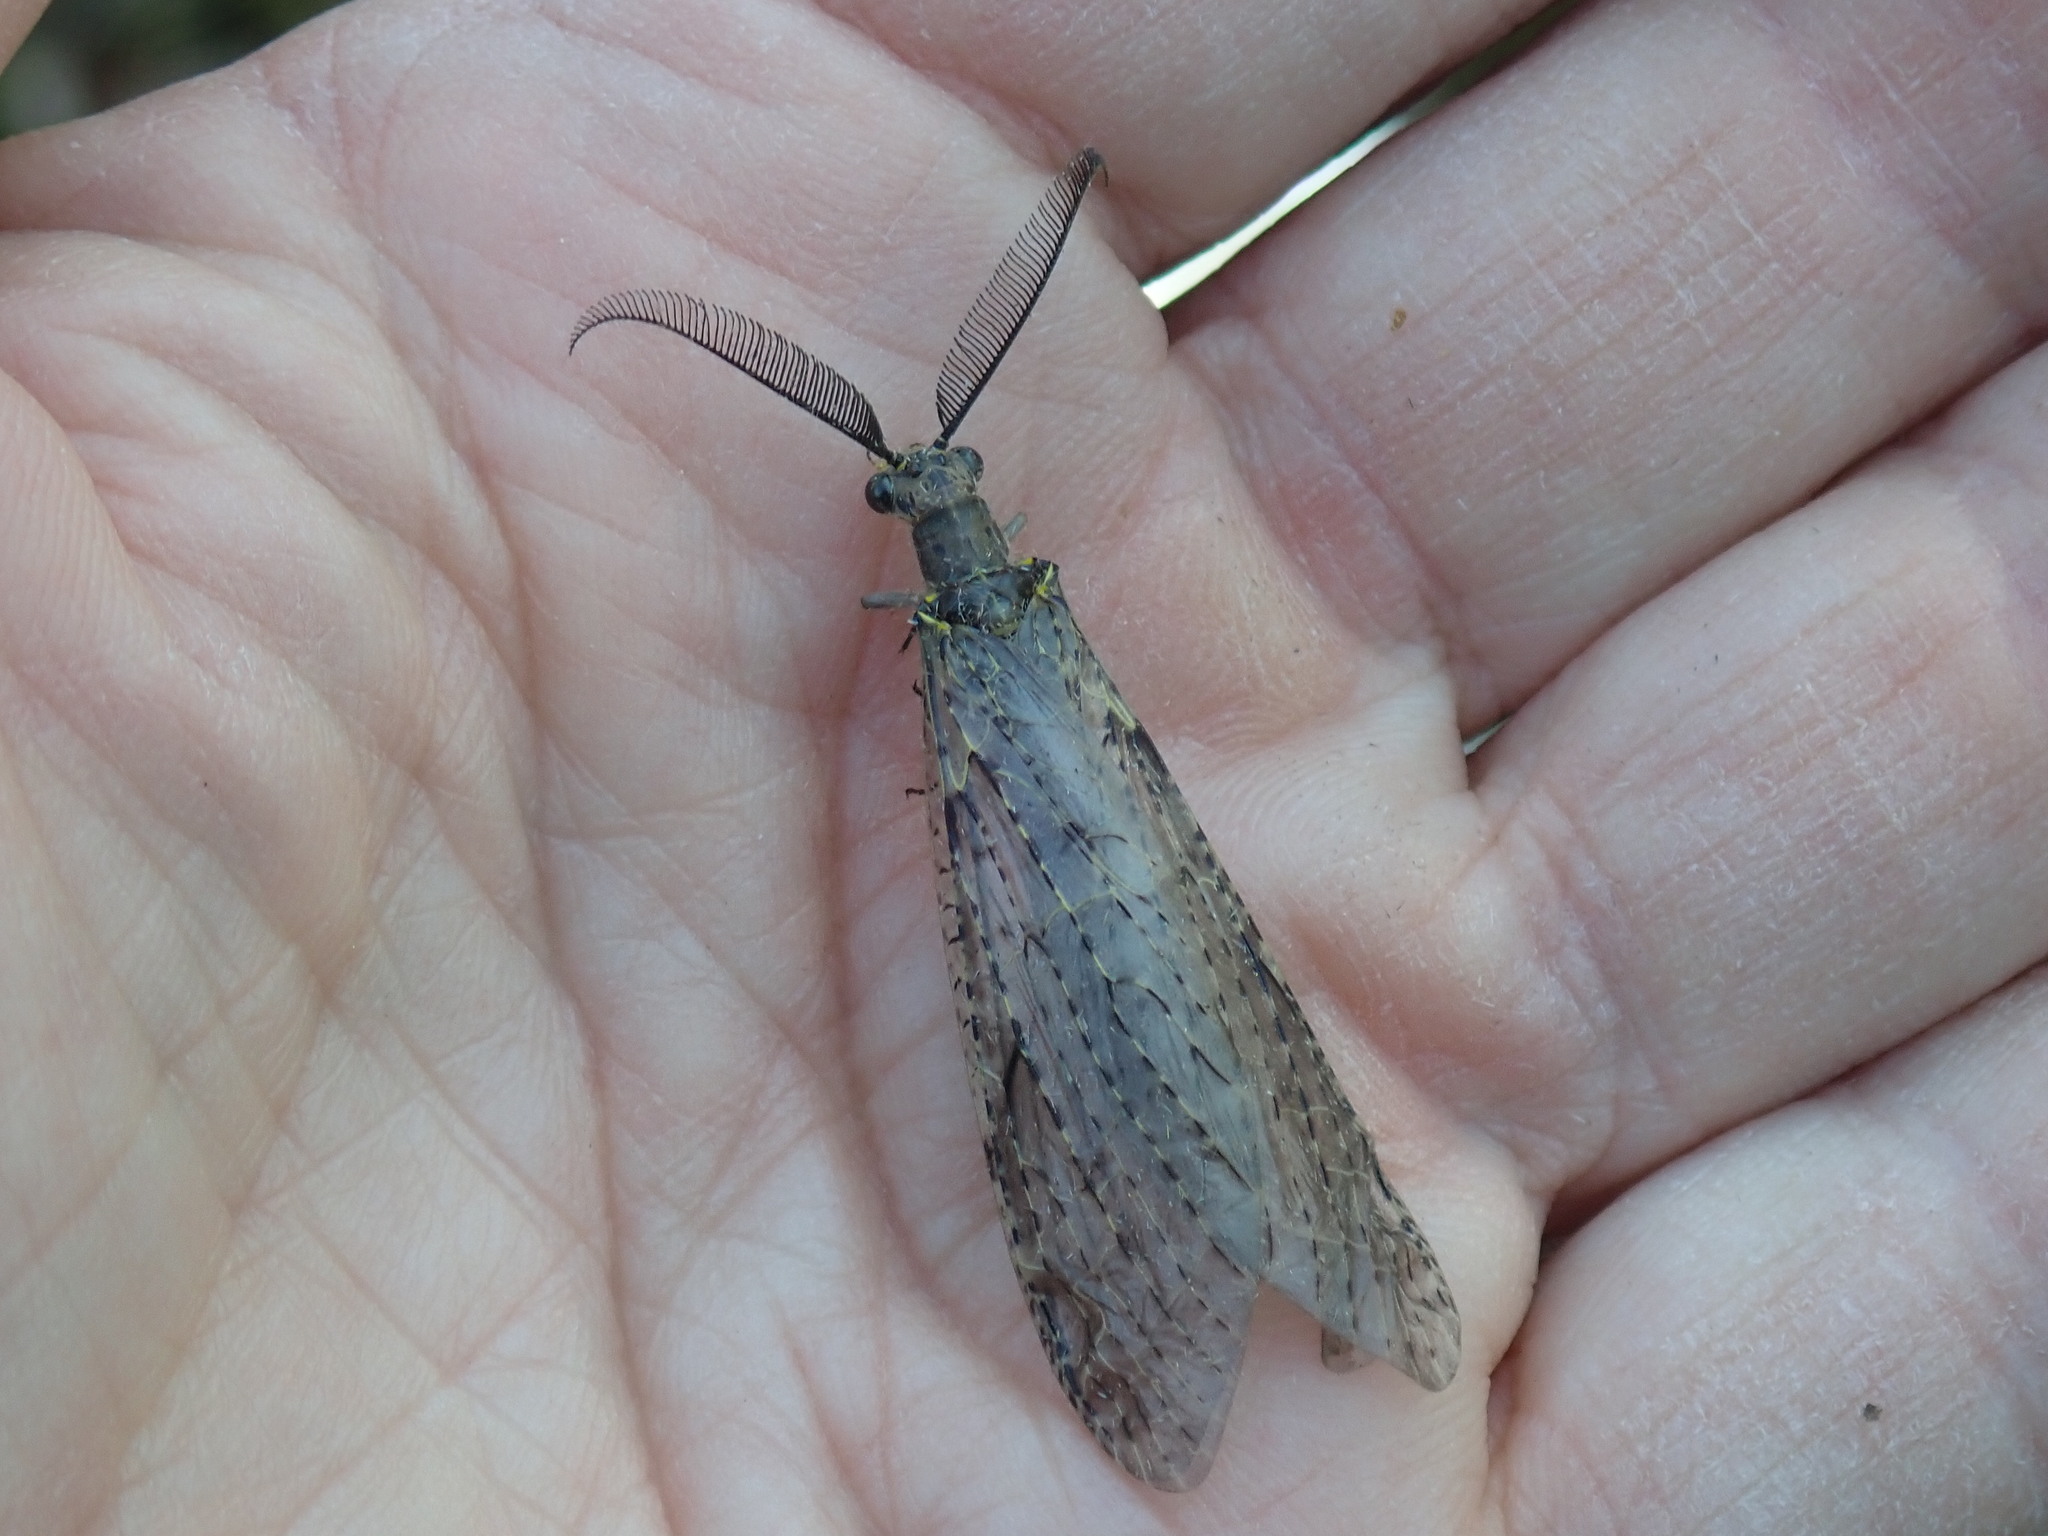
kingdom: Animalia
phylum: Arthropoda
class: Insecta
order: Megaloptera
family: Corydalidae
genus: Chauliodes
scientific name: Chauliodes rastricornis
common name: Spring fishfly
